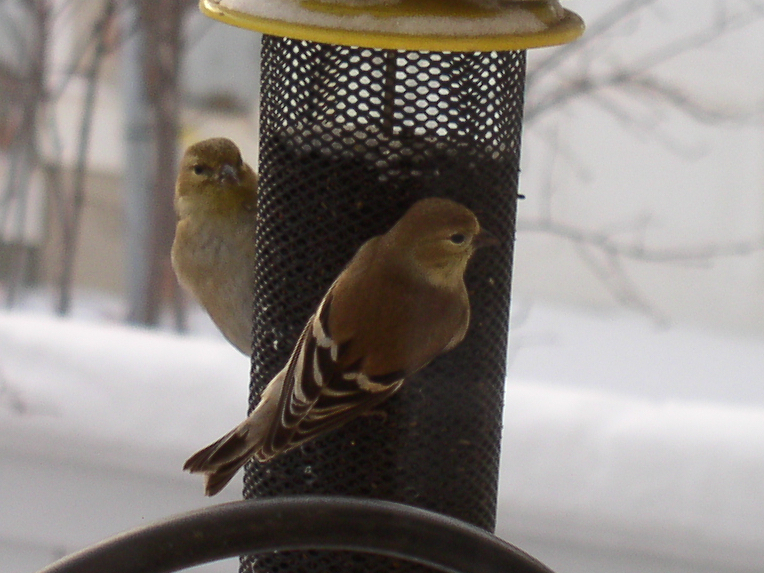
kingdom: Animalia
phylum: Chordata
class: Aves
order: Passeriformes
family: Fringillidae
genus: Spinus
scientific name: Spinus tristis
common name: American goldfinch
